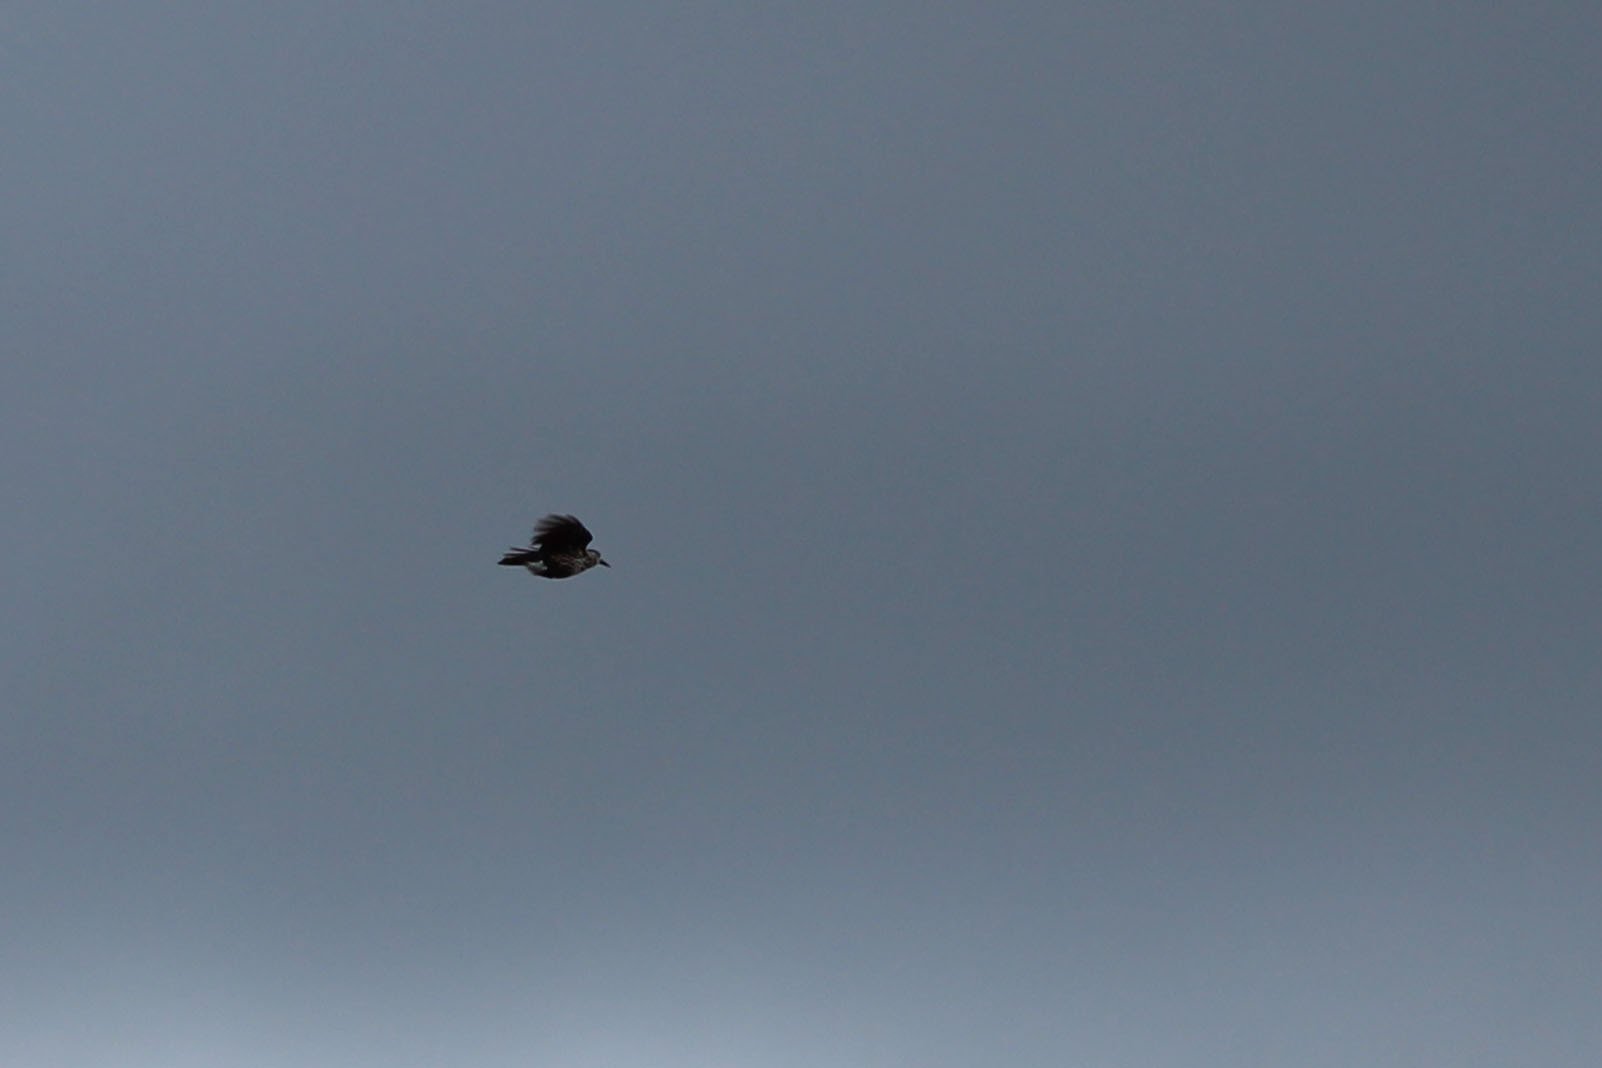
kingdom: Animalia
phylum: Chordata
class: Aves
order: Passeriformes
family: Corvidae
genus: Nucifraga
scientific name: Nucifraga caryocatactes
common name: Spotted nutcracker
